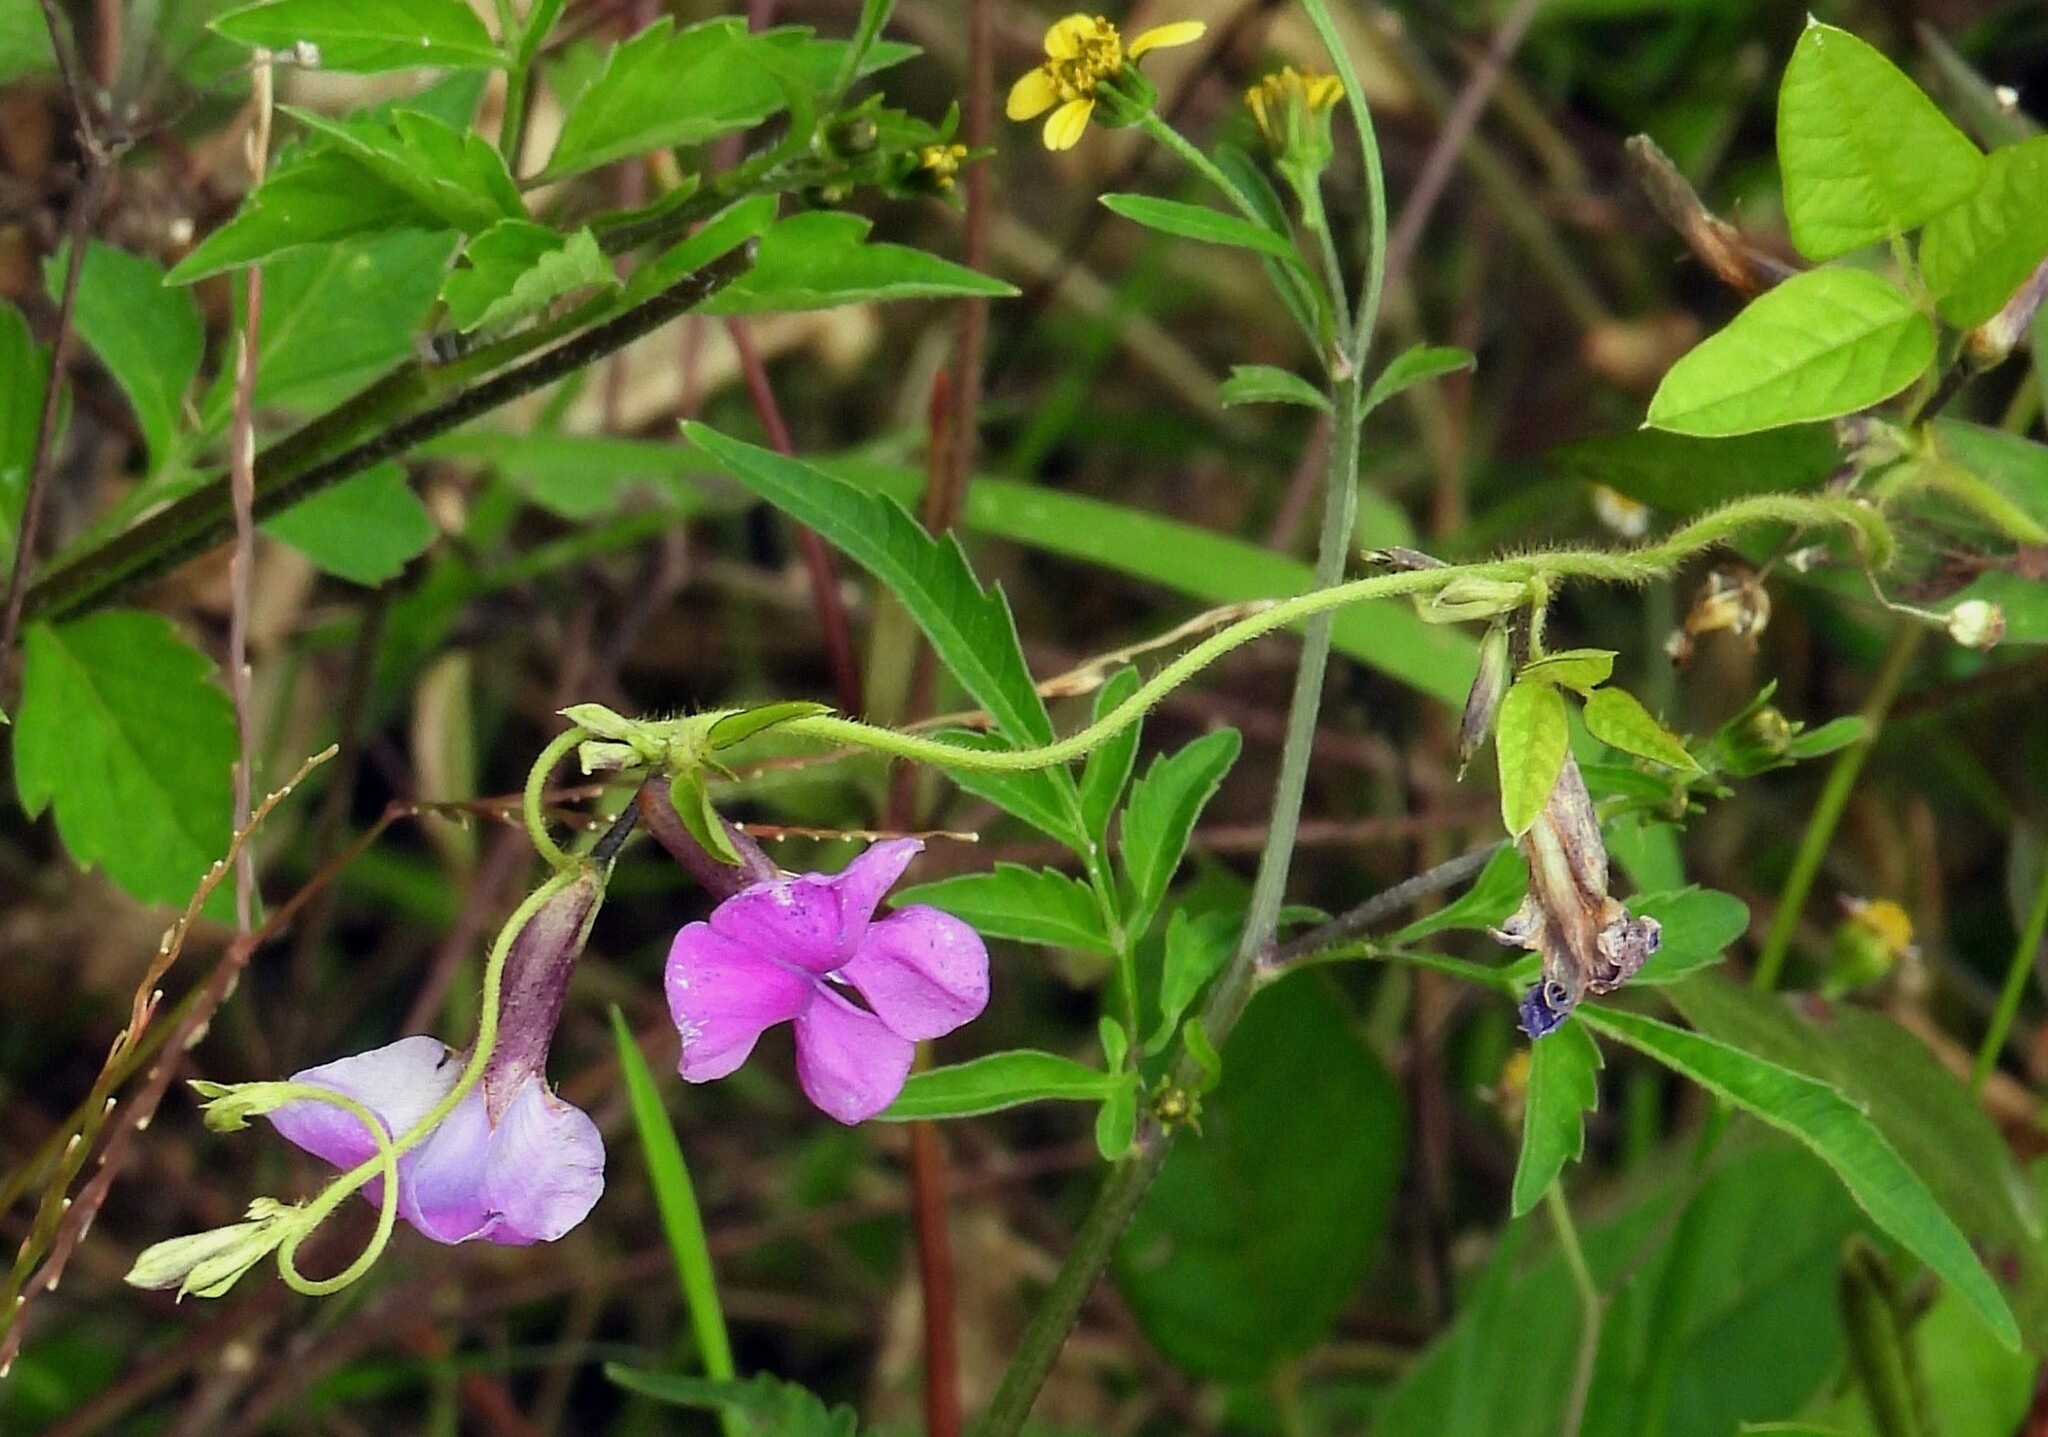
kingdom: Plantae
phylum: Tracheophyta
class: Magnoliopsida
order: Fabales
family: Fabaceae
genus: Cologania
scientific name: Cologania broussonetii
